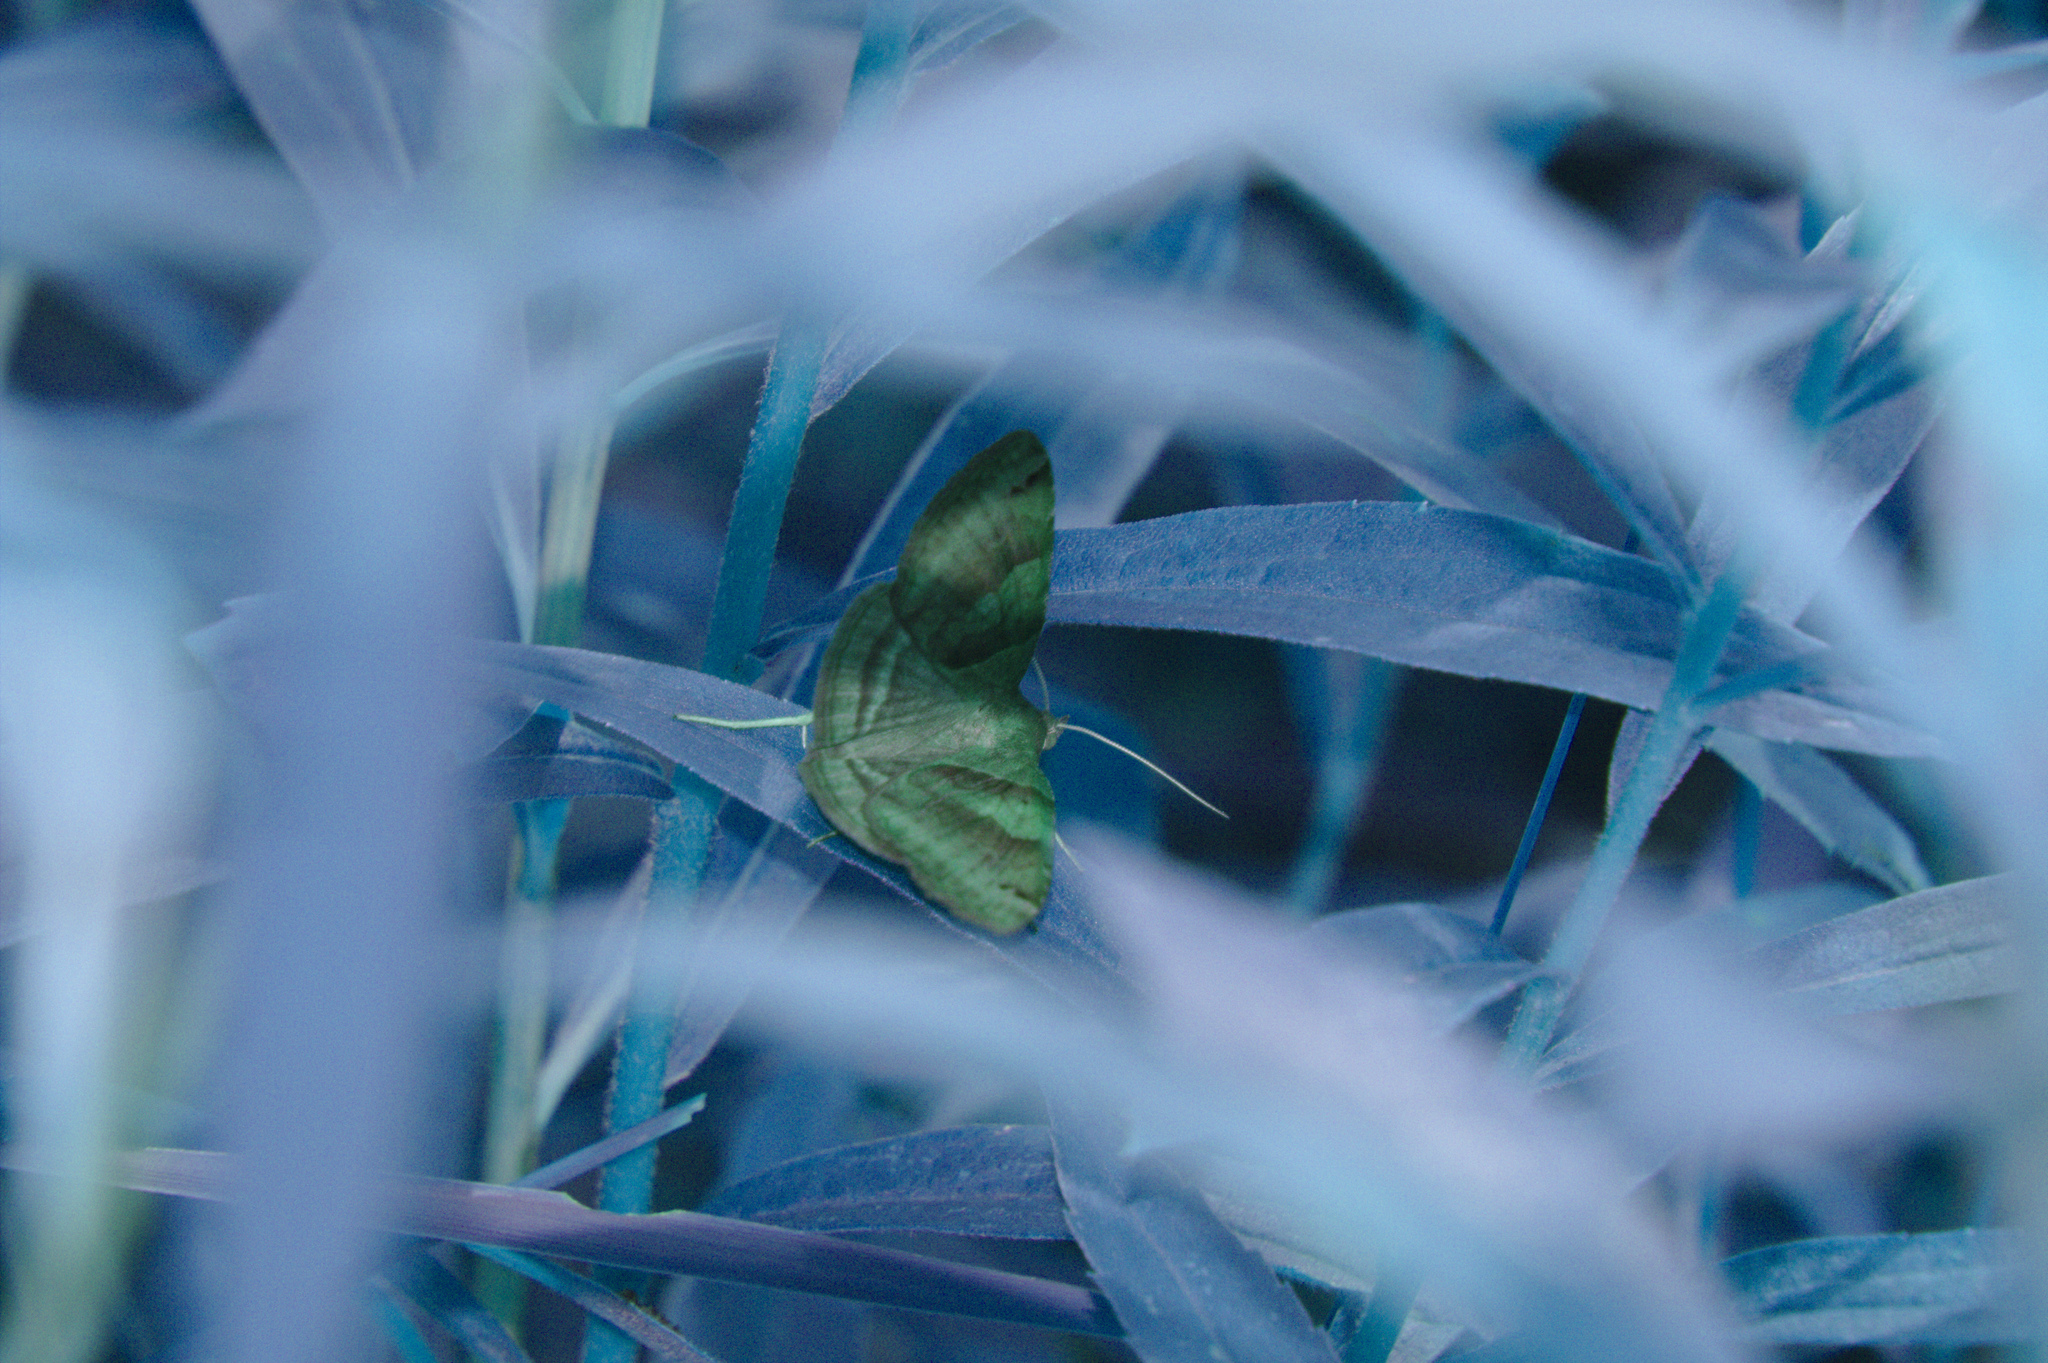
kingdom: Animalia
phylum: Arthropoda
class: Insecta
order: Lepidoptera
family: Erebidae
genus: Caenurgina
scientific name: Caenurgina erechtea
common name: Forage looper moth
